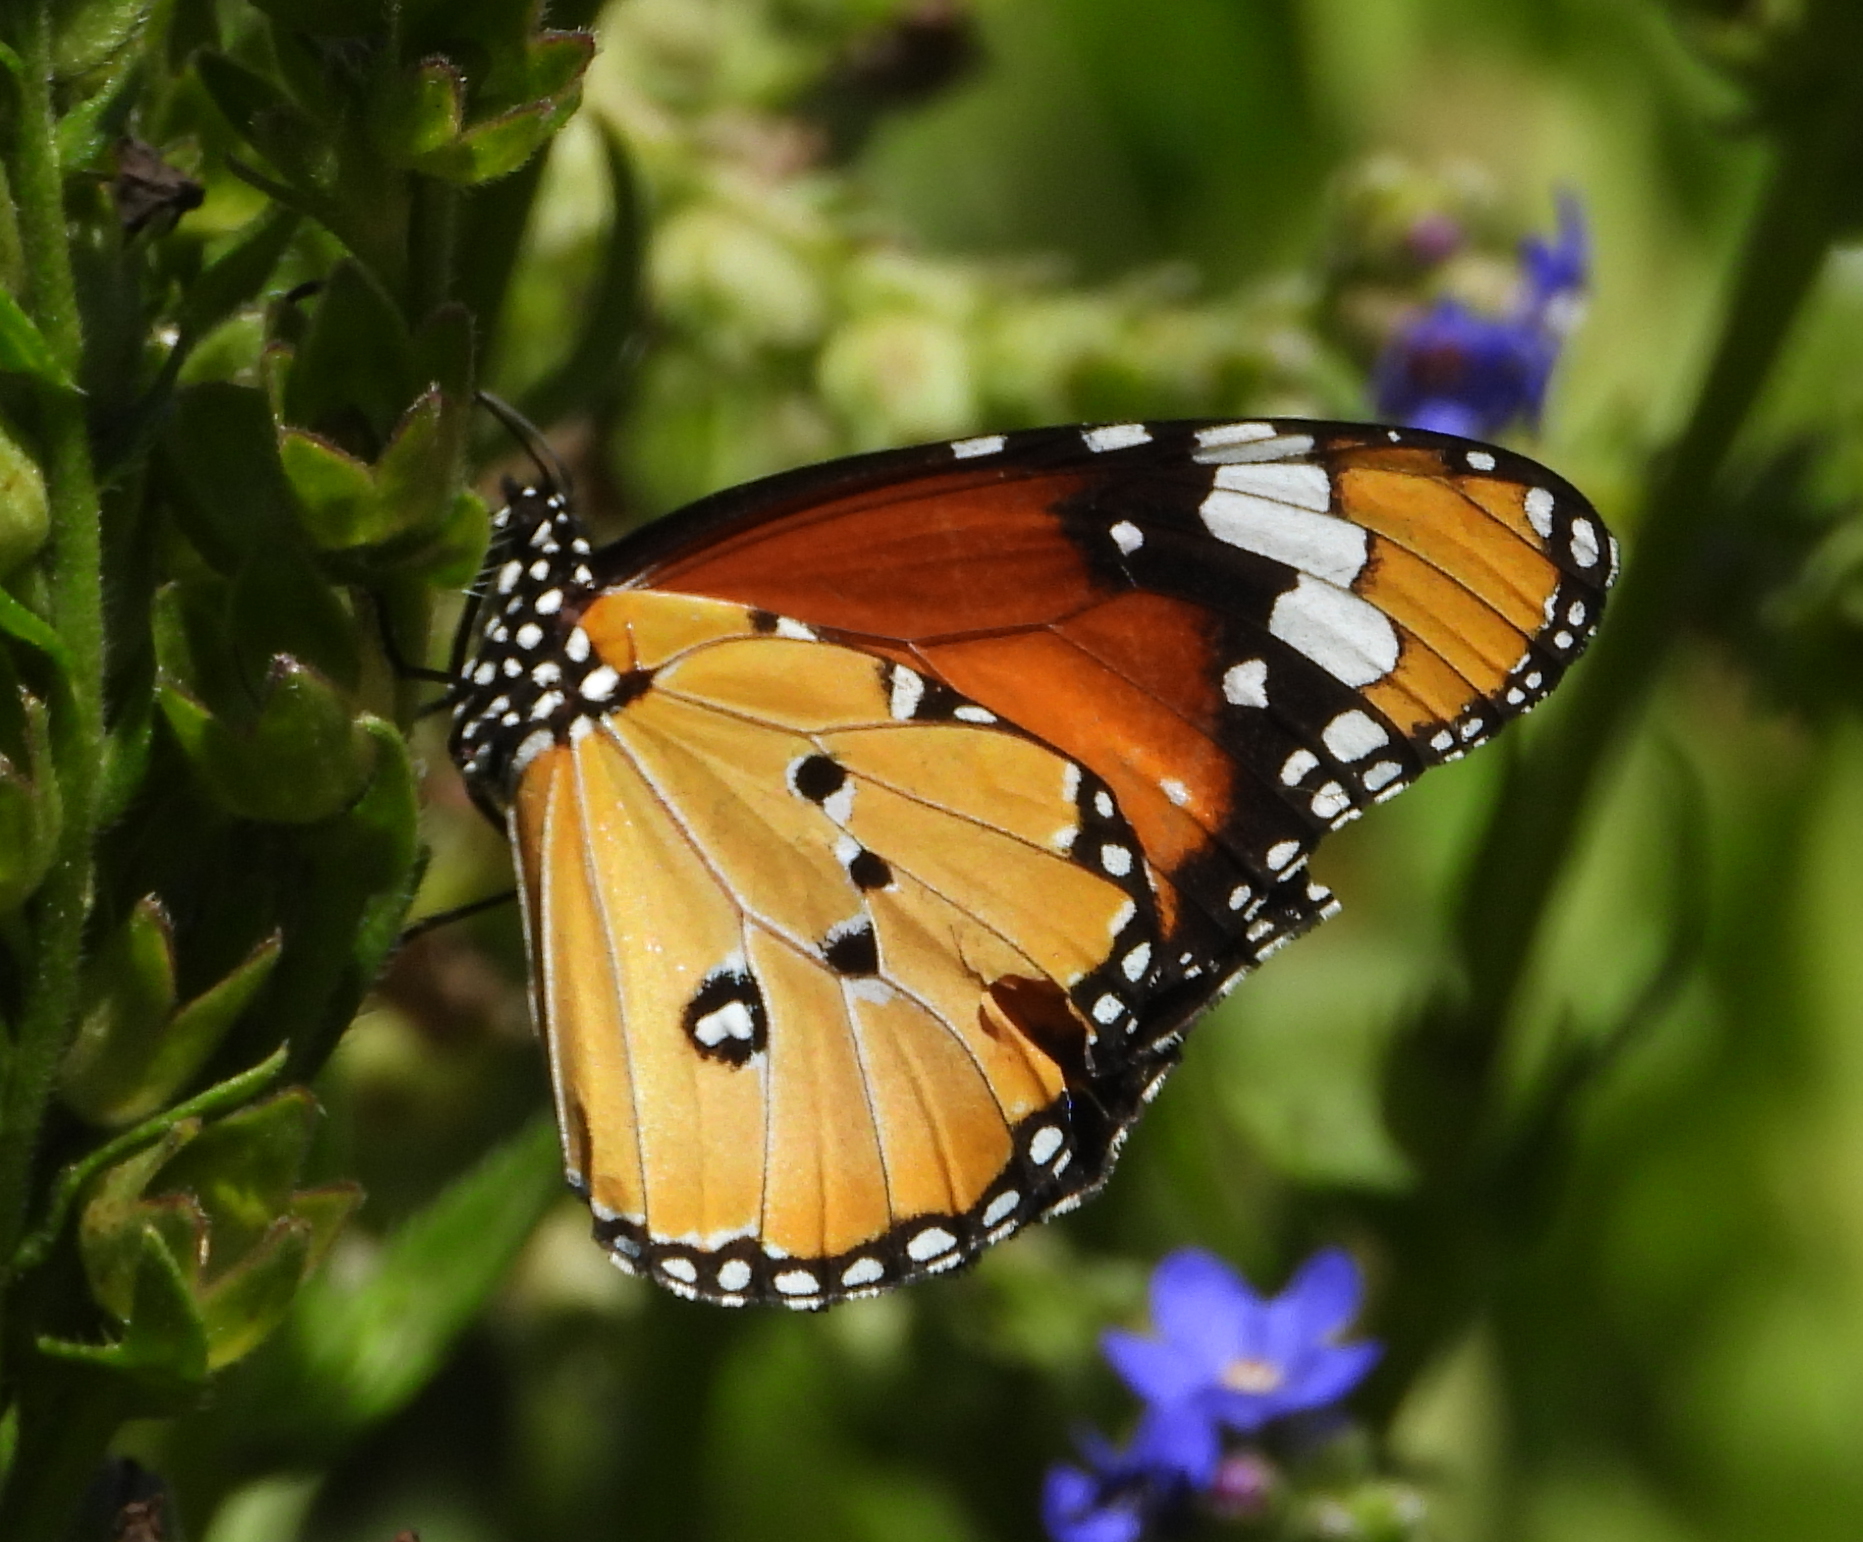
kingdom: Animalia
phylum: Arthropoda
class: Insecta
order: Lepidoptera
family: Nymphalidae
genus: Danaus
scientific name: Danaus chrysippus
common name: Plain tiger
